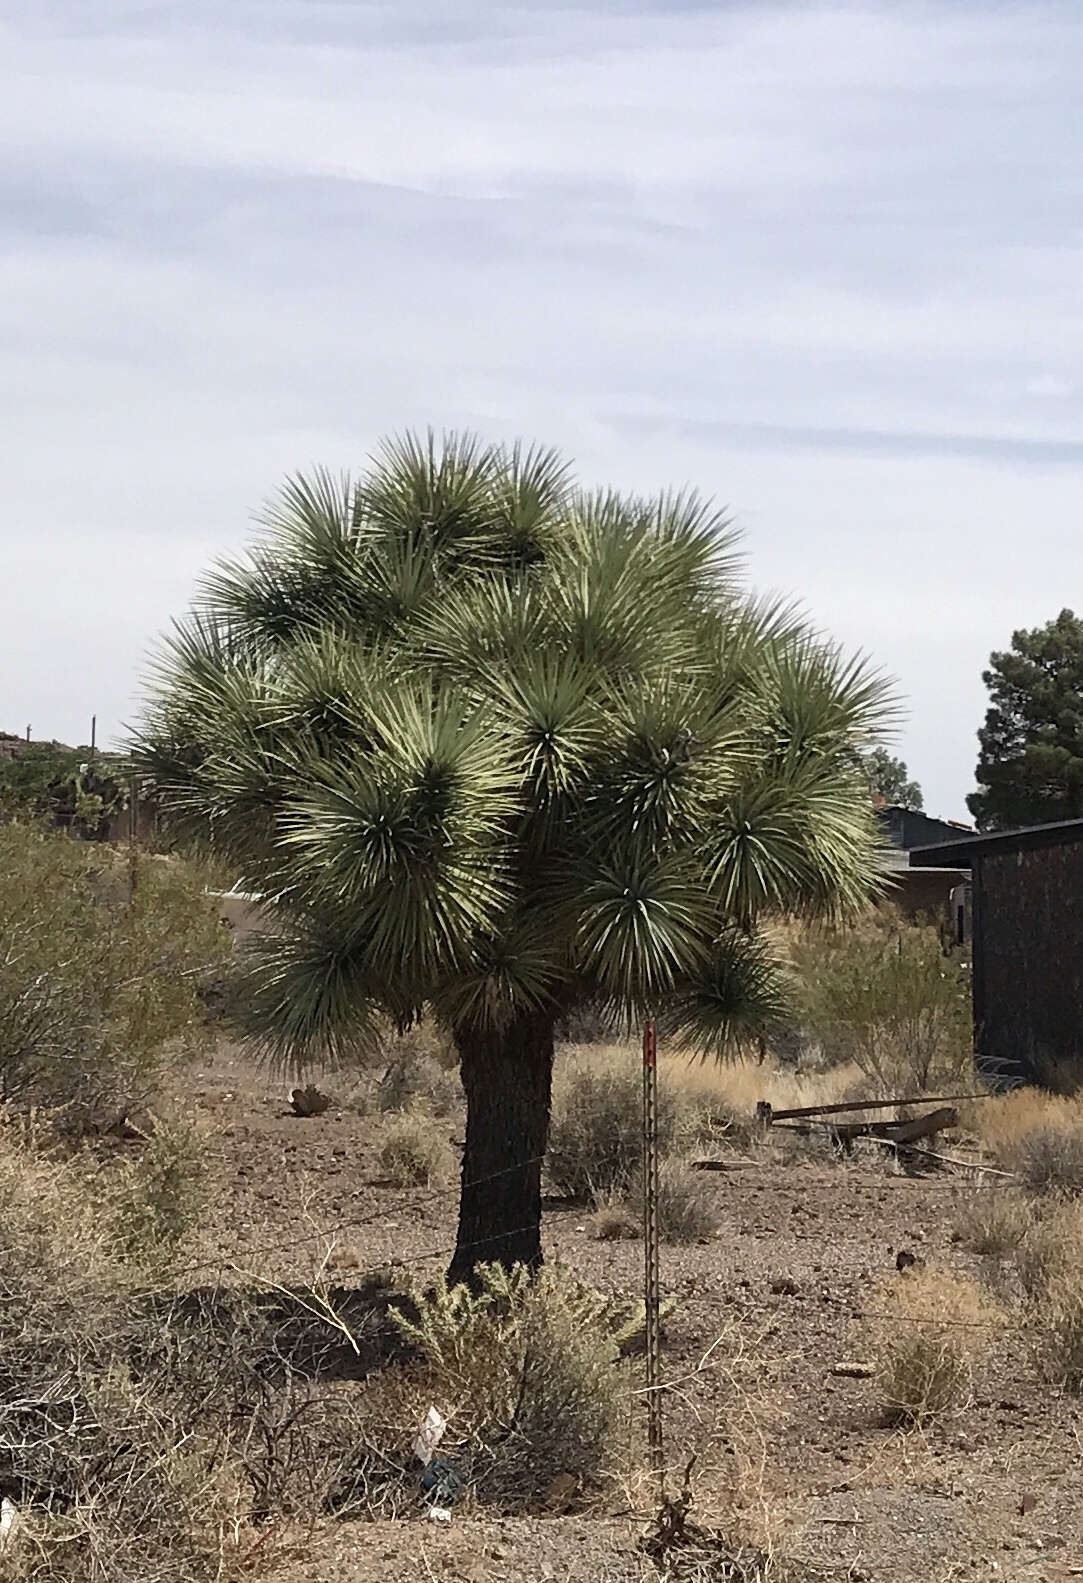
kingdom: Plantae
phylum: Tracheophyta
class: Liliopsida
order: Asparagales
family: Asparagaceae
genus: Yucca
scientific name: Yucca brevifolia
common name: Joshua tree
